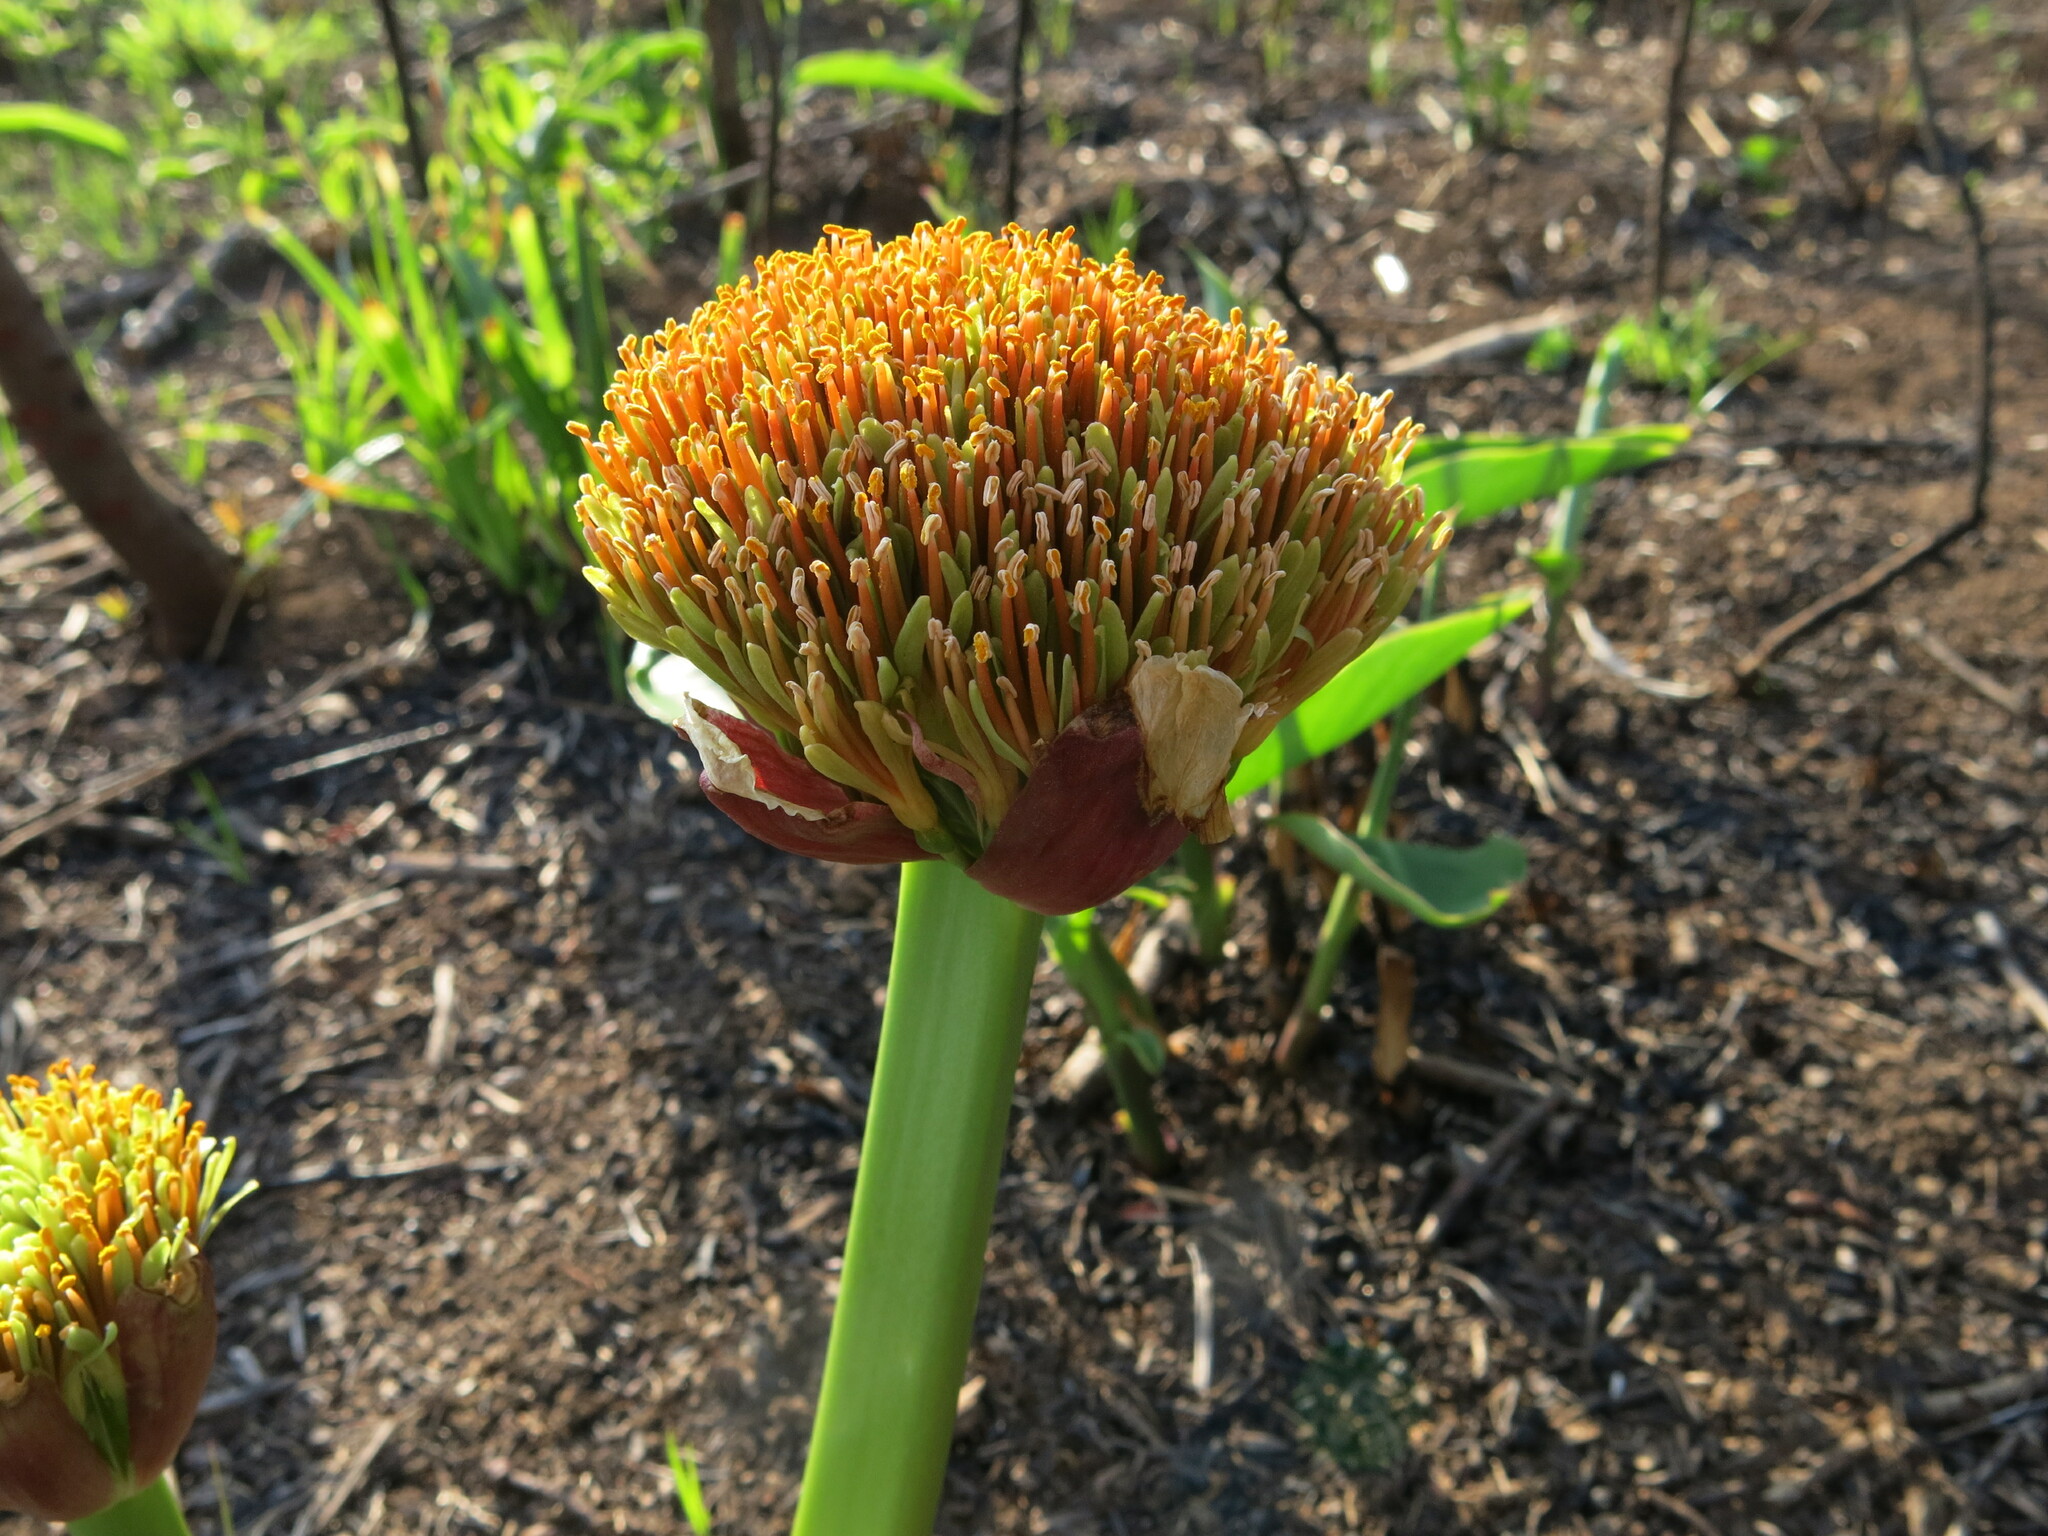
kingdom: Plantae
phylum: Tracheophyta
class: Liliopsida
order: Asparagales
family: Amaryllidaceae
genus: Scadoxus
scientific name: Scadoxus puniceus
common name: Royal-paintbrush
